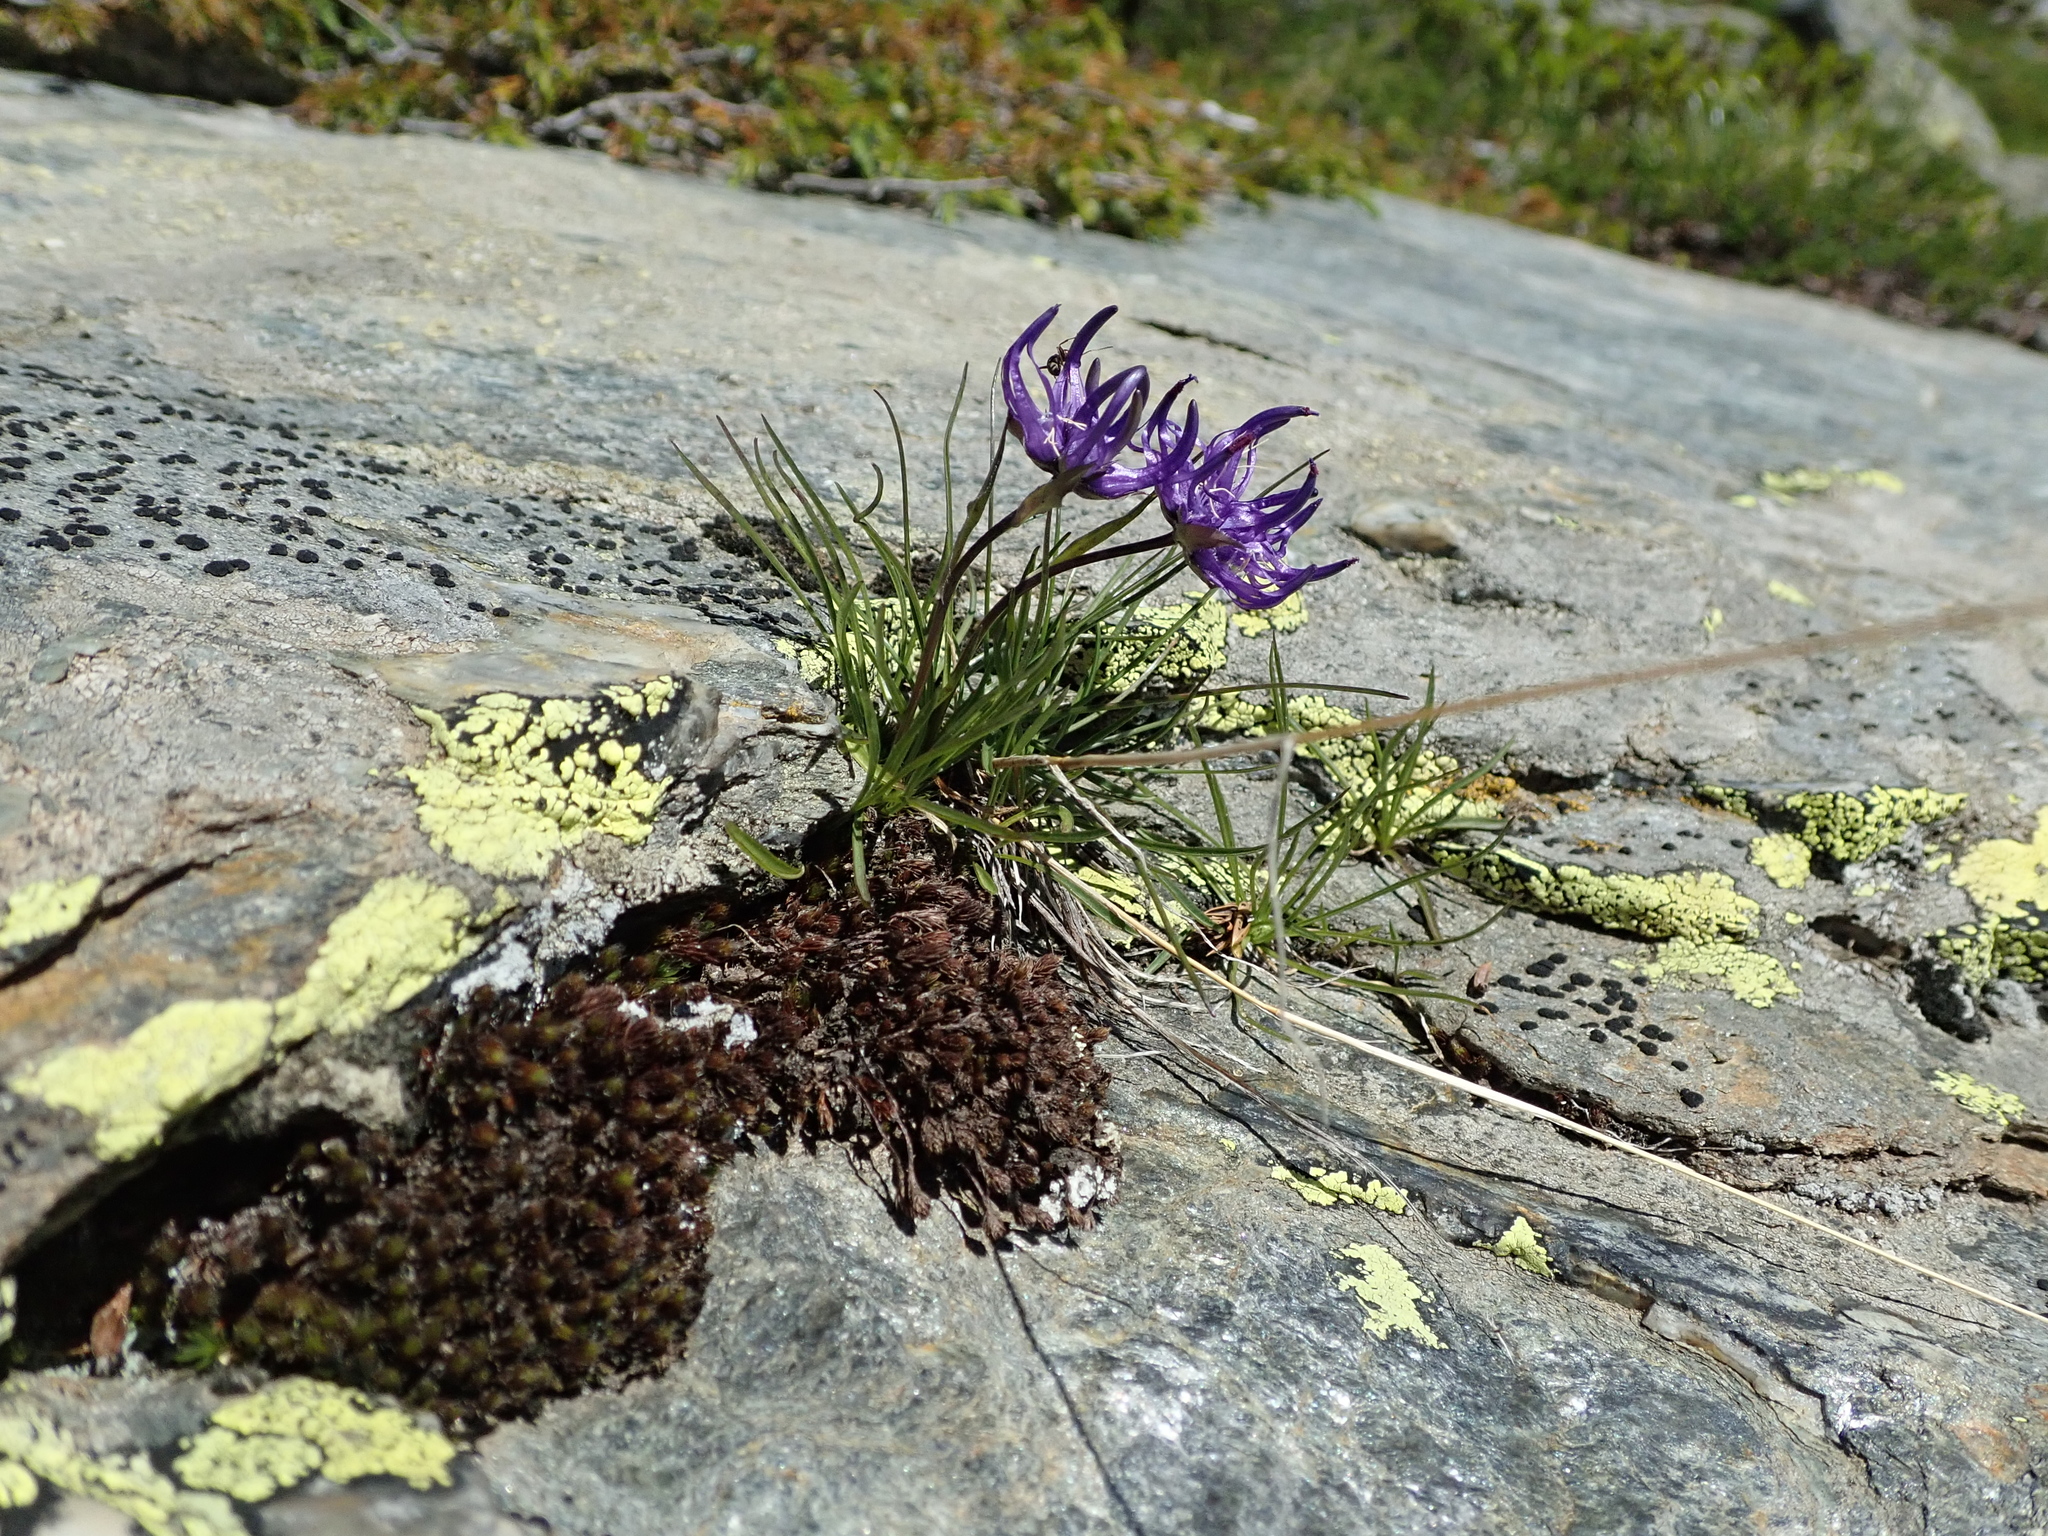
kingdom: Plantae
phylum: Tracheophyta
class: Magnoliopsida
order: Asterales
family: Campanulaceae
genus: Phyteuma
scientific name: Phyteuma hemisphaericum
